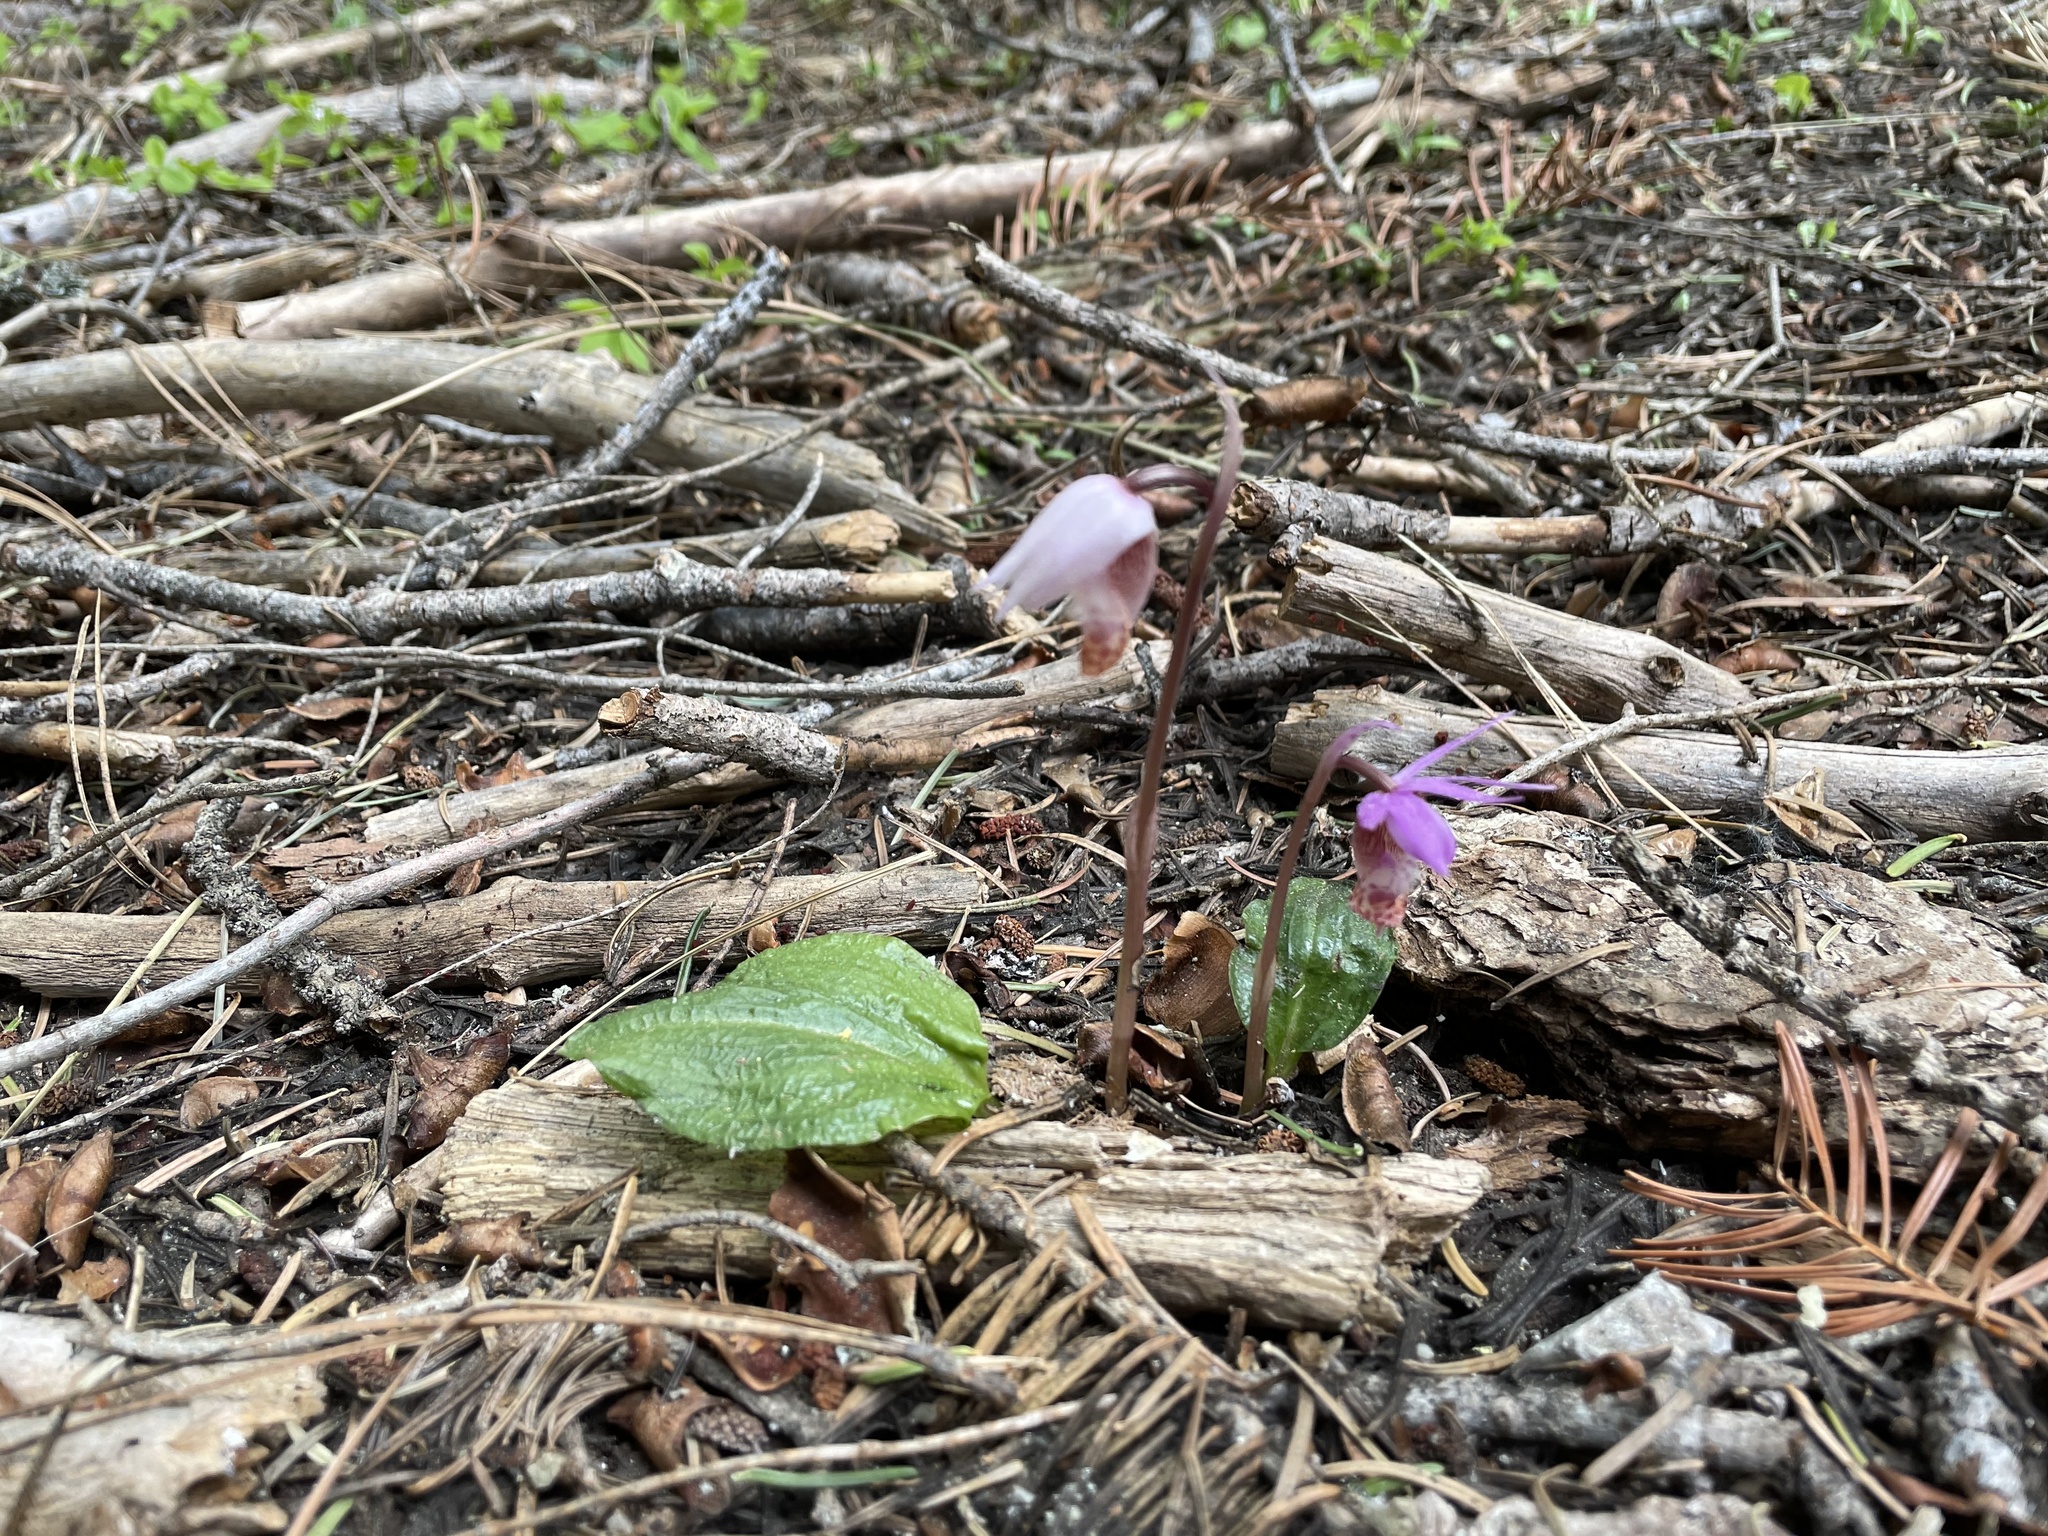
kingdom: Plantae
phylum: Tracheophyta
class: Liliopsida
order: Asparagales
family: Orchidaceae
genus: Calypso
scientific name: Calypso bulbosa
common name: Calypso
